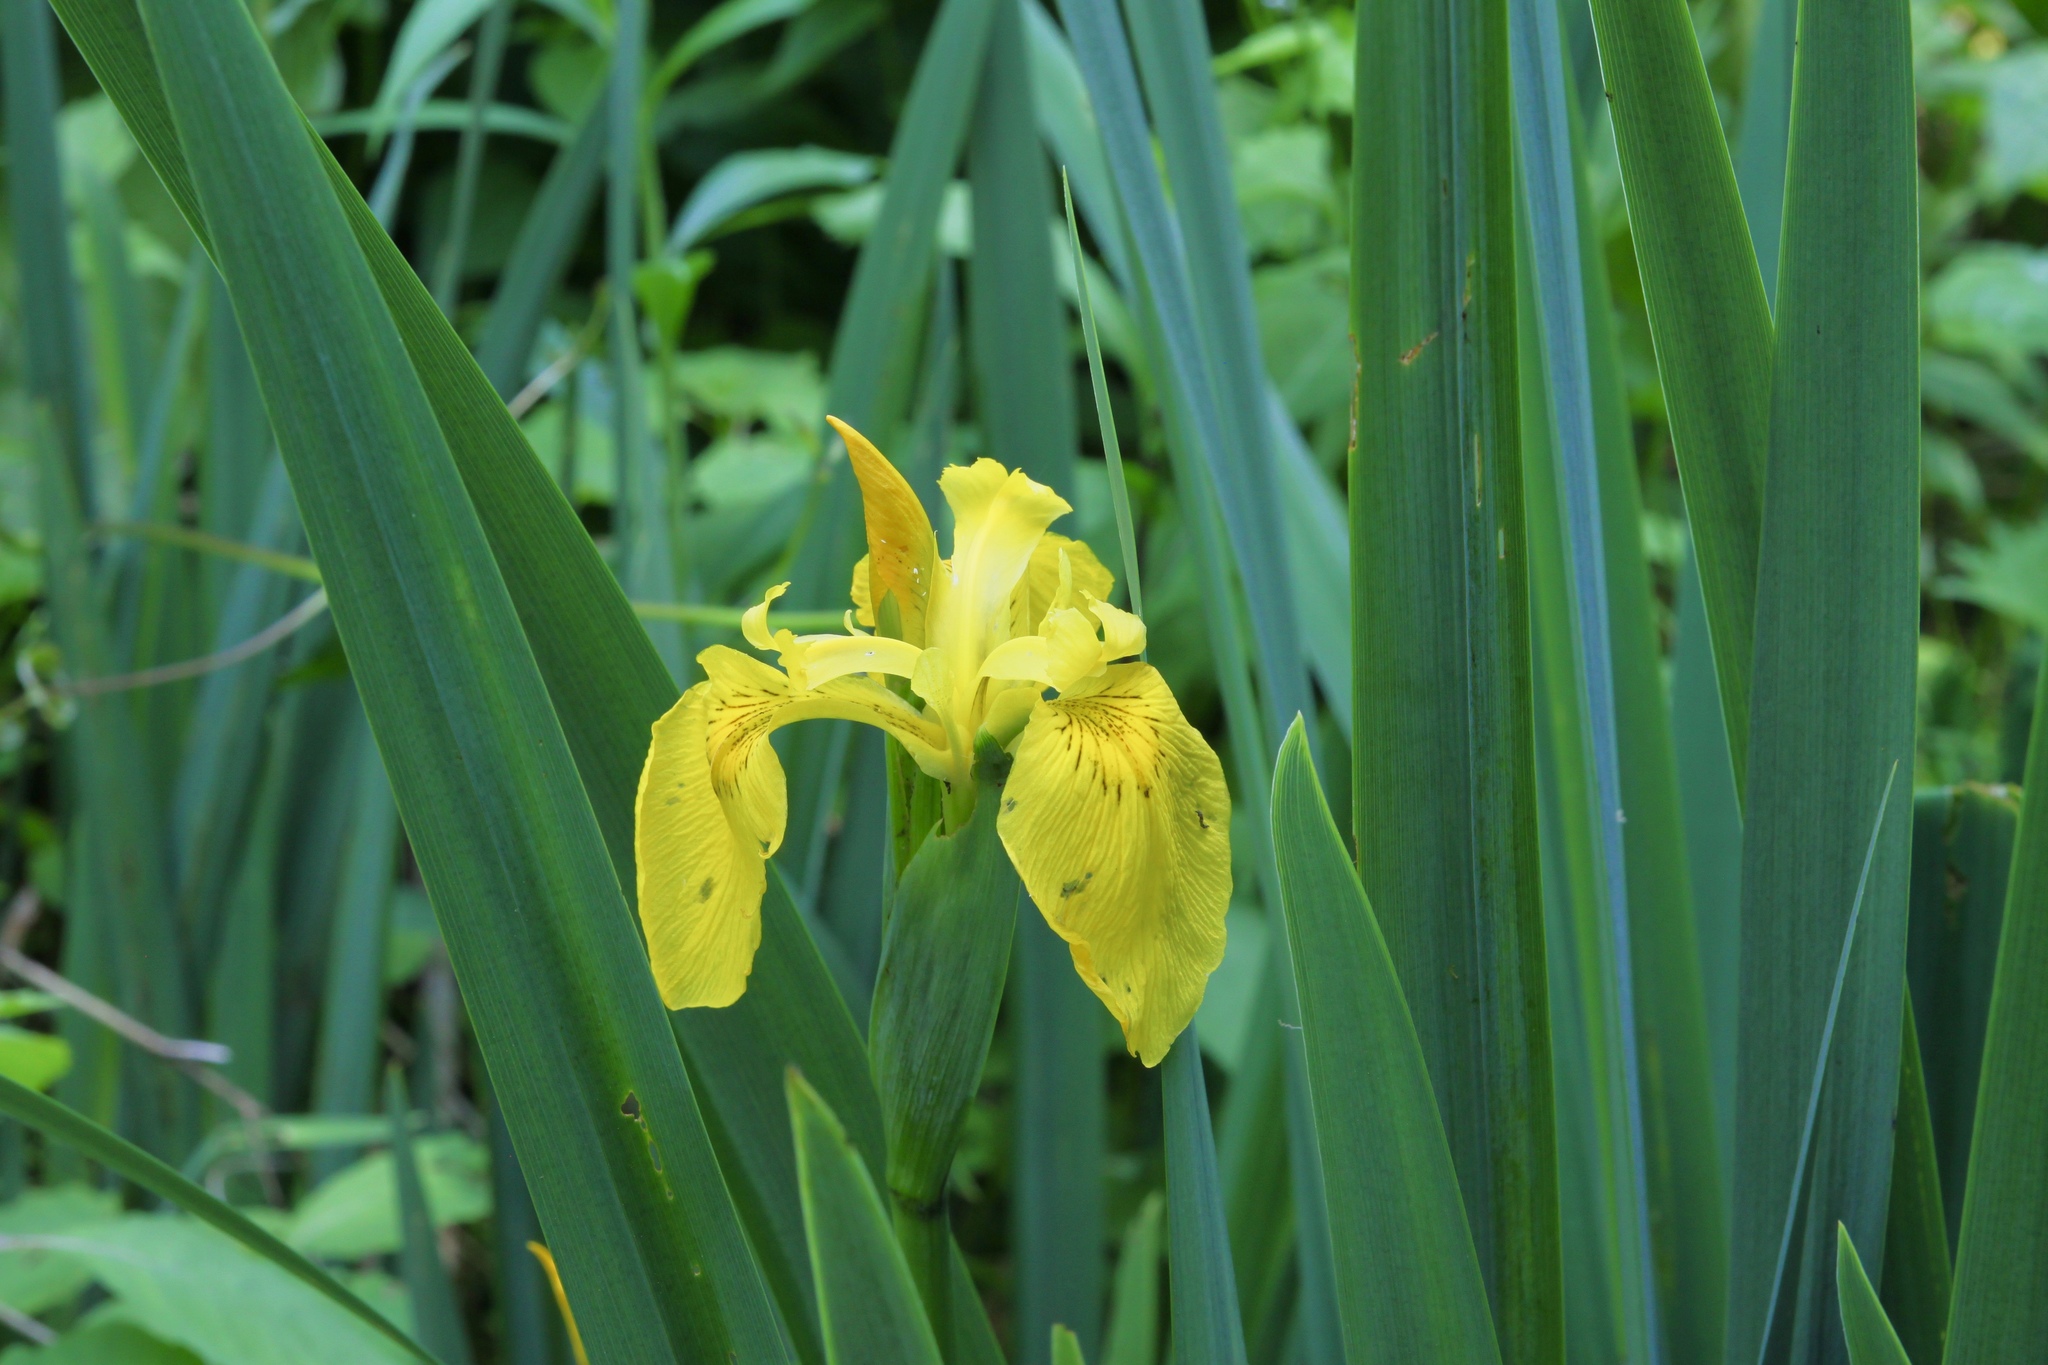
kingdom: Plantae
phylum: Tracheophyta
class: Liliopsida
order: Asparagales
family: Iridaceae
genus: Iris
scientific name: Iris pseudacorus
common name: Yellow flag
